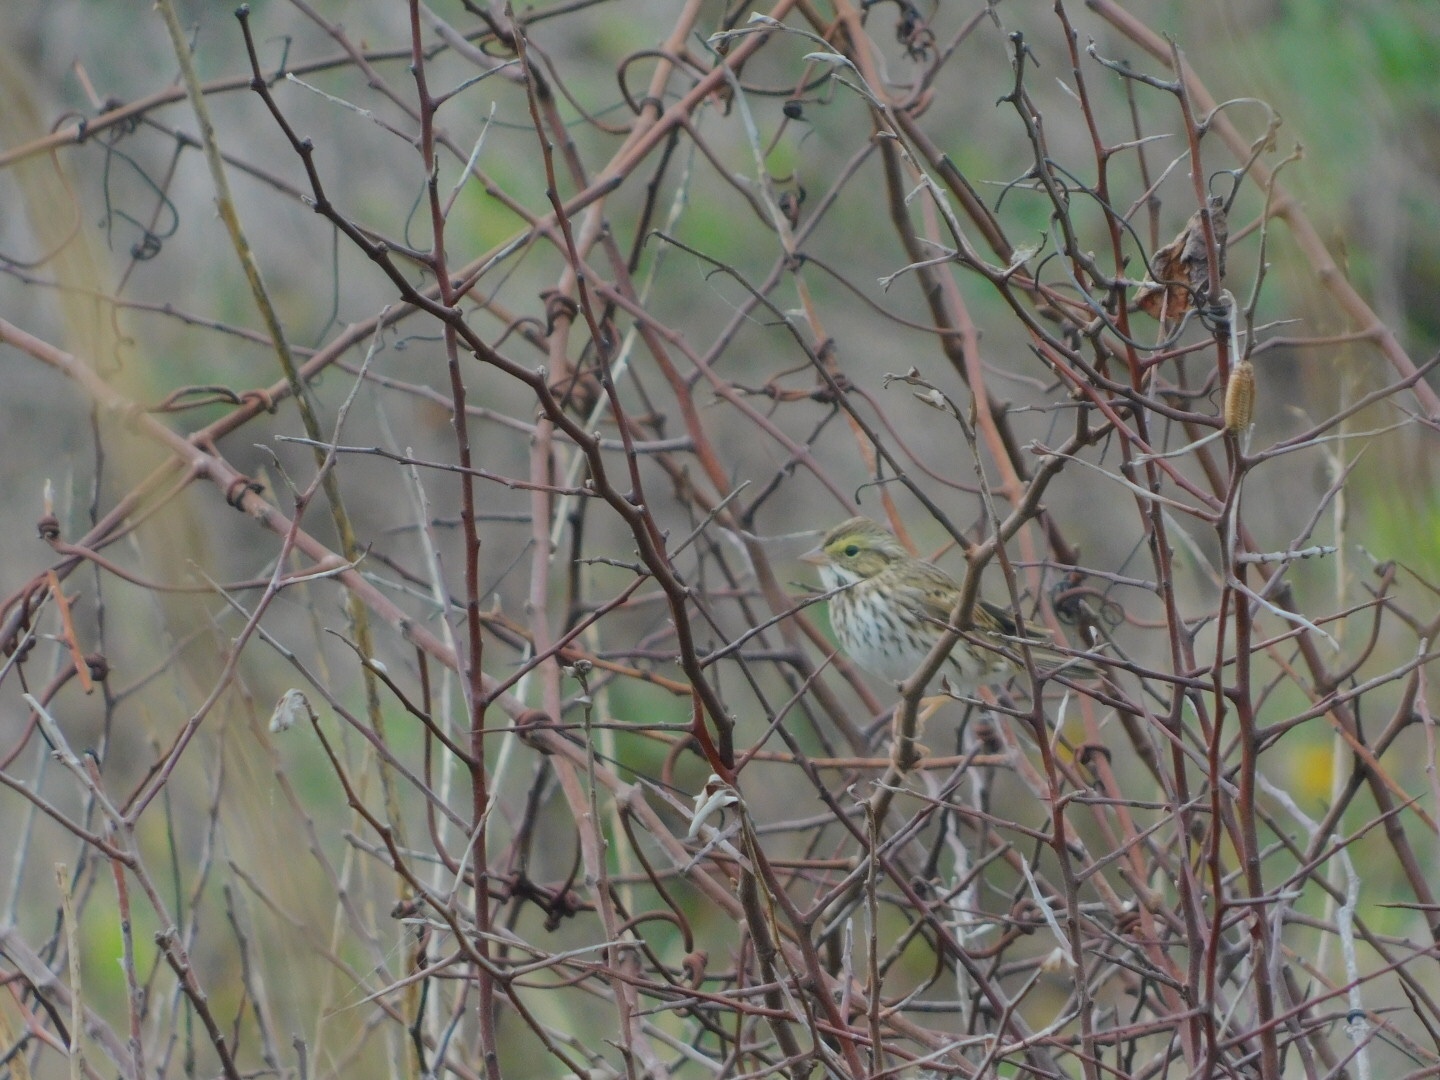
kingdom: Animalia
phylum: Chordata
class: Aves
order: Passeriformes
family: Passerellidae
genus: Passerculus
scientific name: Passerculus sandwichensis
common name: Savannah sparrow
